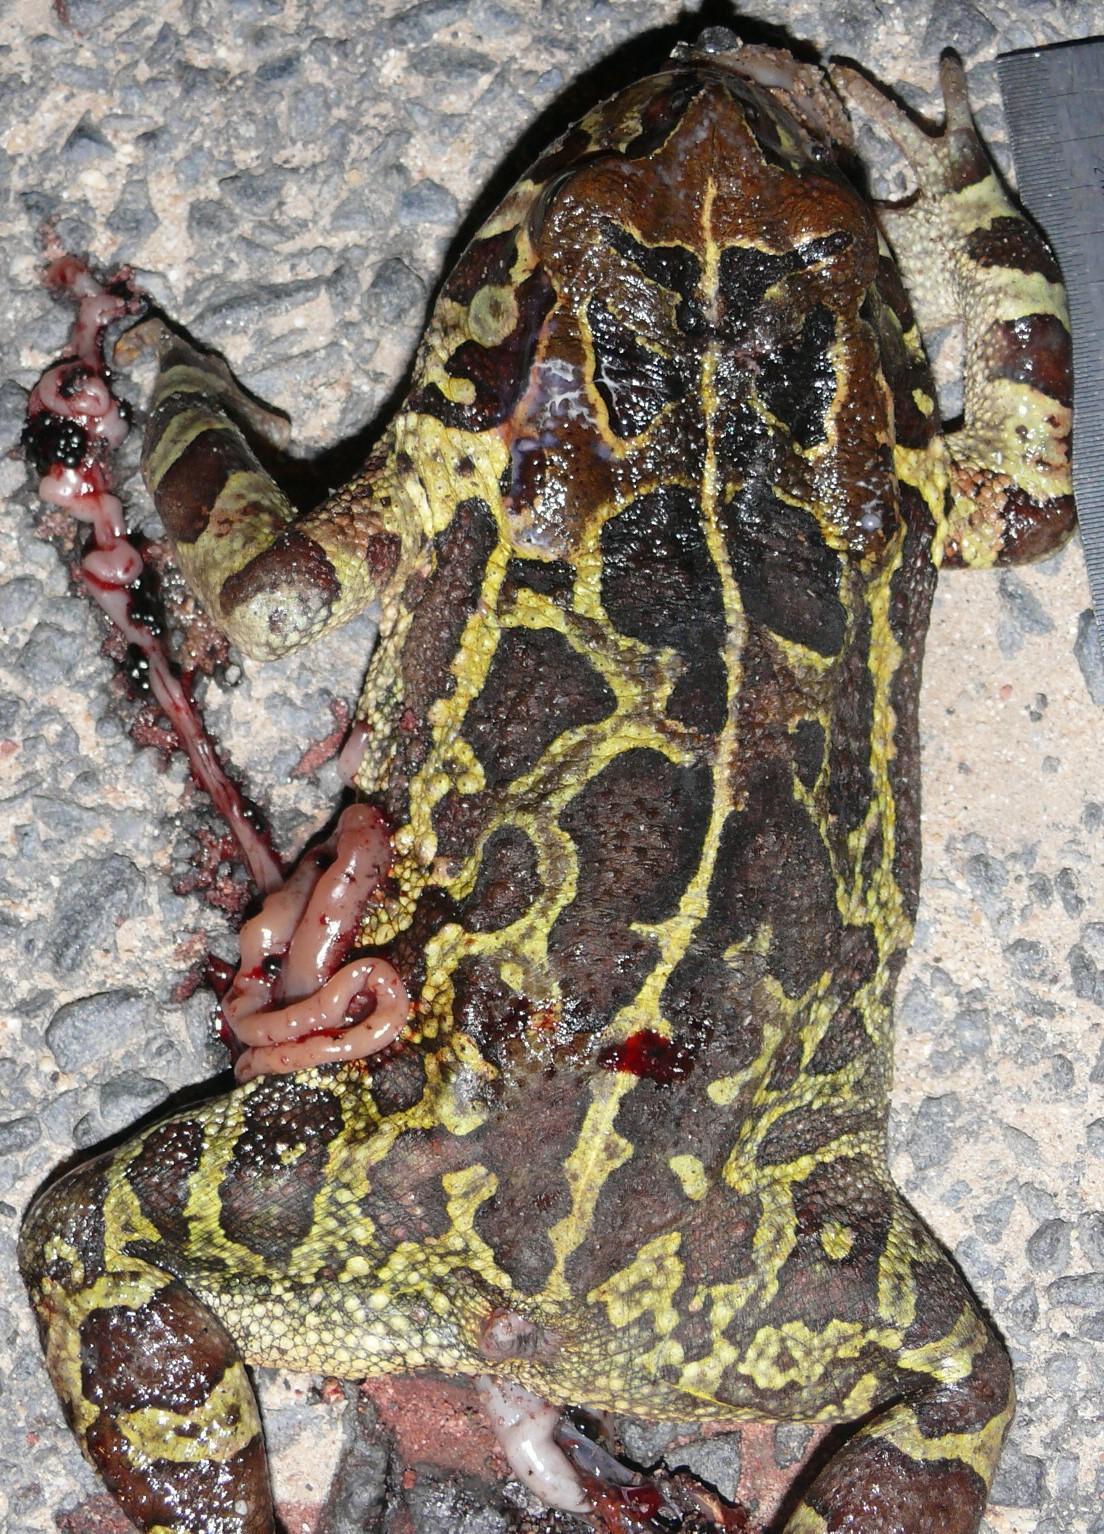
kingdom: Animalia
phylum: Chordata
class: Amphibia
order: Anura
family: Bufonidae
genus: Sclerophrys
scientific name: Sclerophrys pantherina
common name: Panther toad
